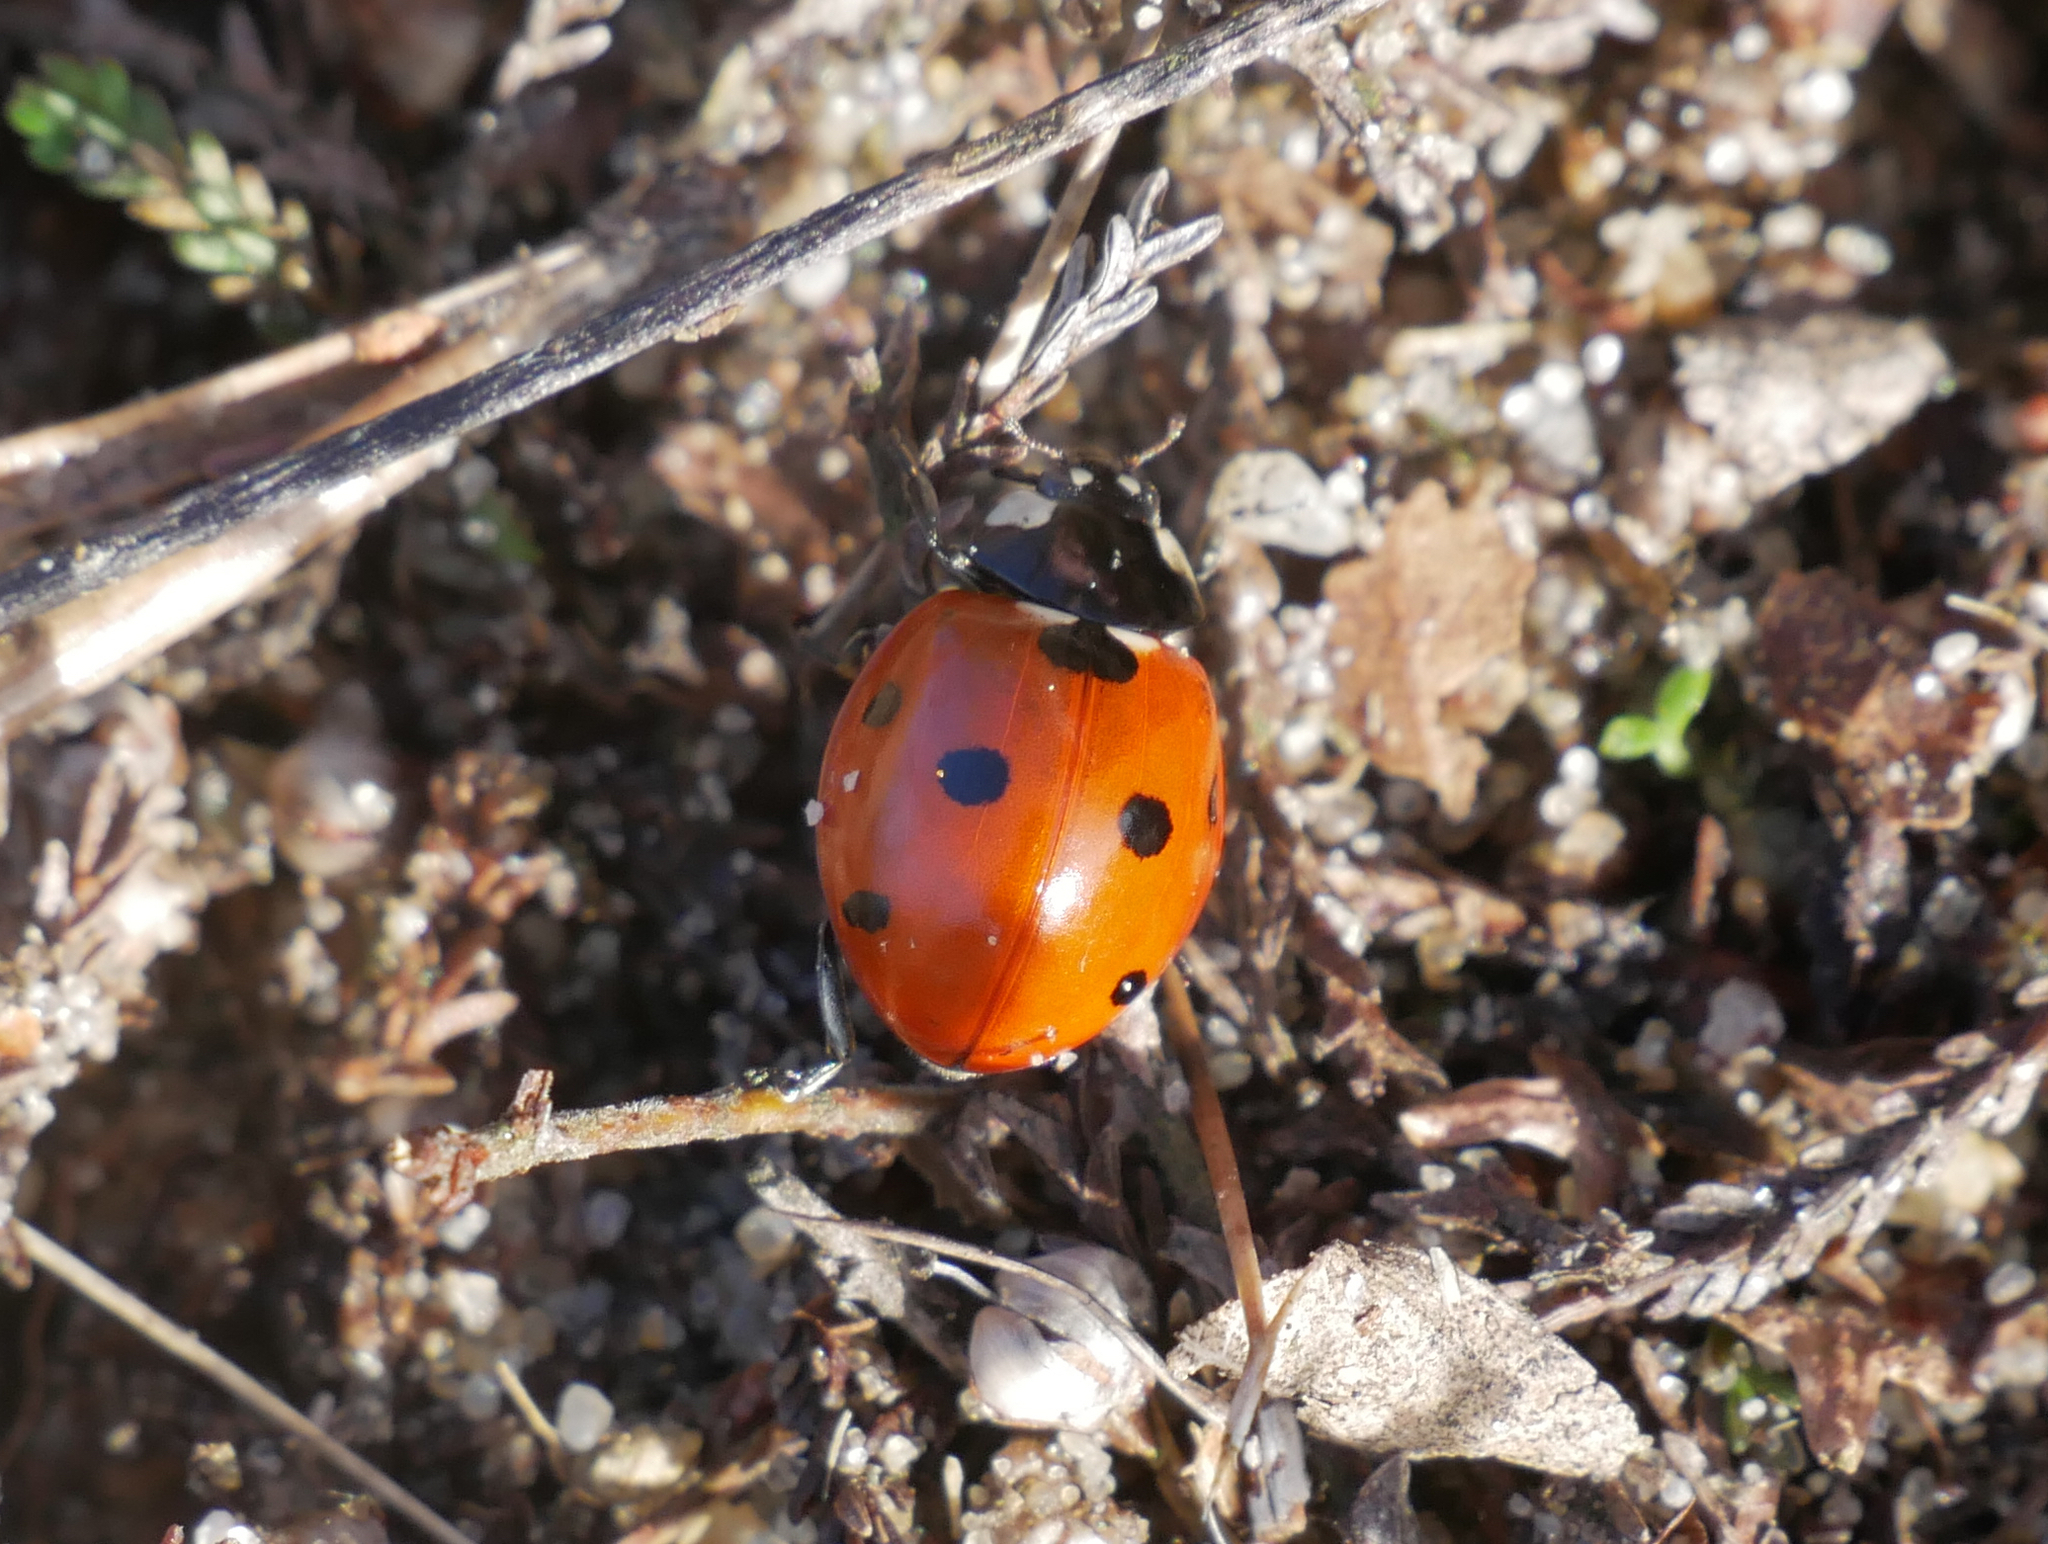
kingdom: Animalia
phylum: Arthropoda
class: Insecta
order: Coleoptera
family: Coccinellidae
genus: Coccinella
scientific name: Coccinella septempunctata
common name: Sevenspotted lady beetle
